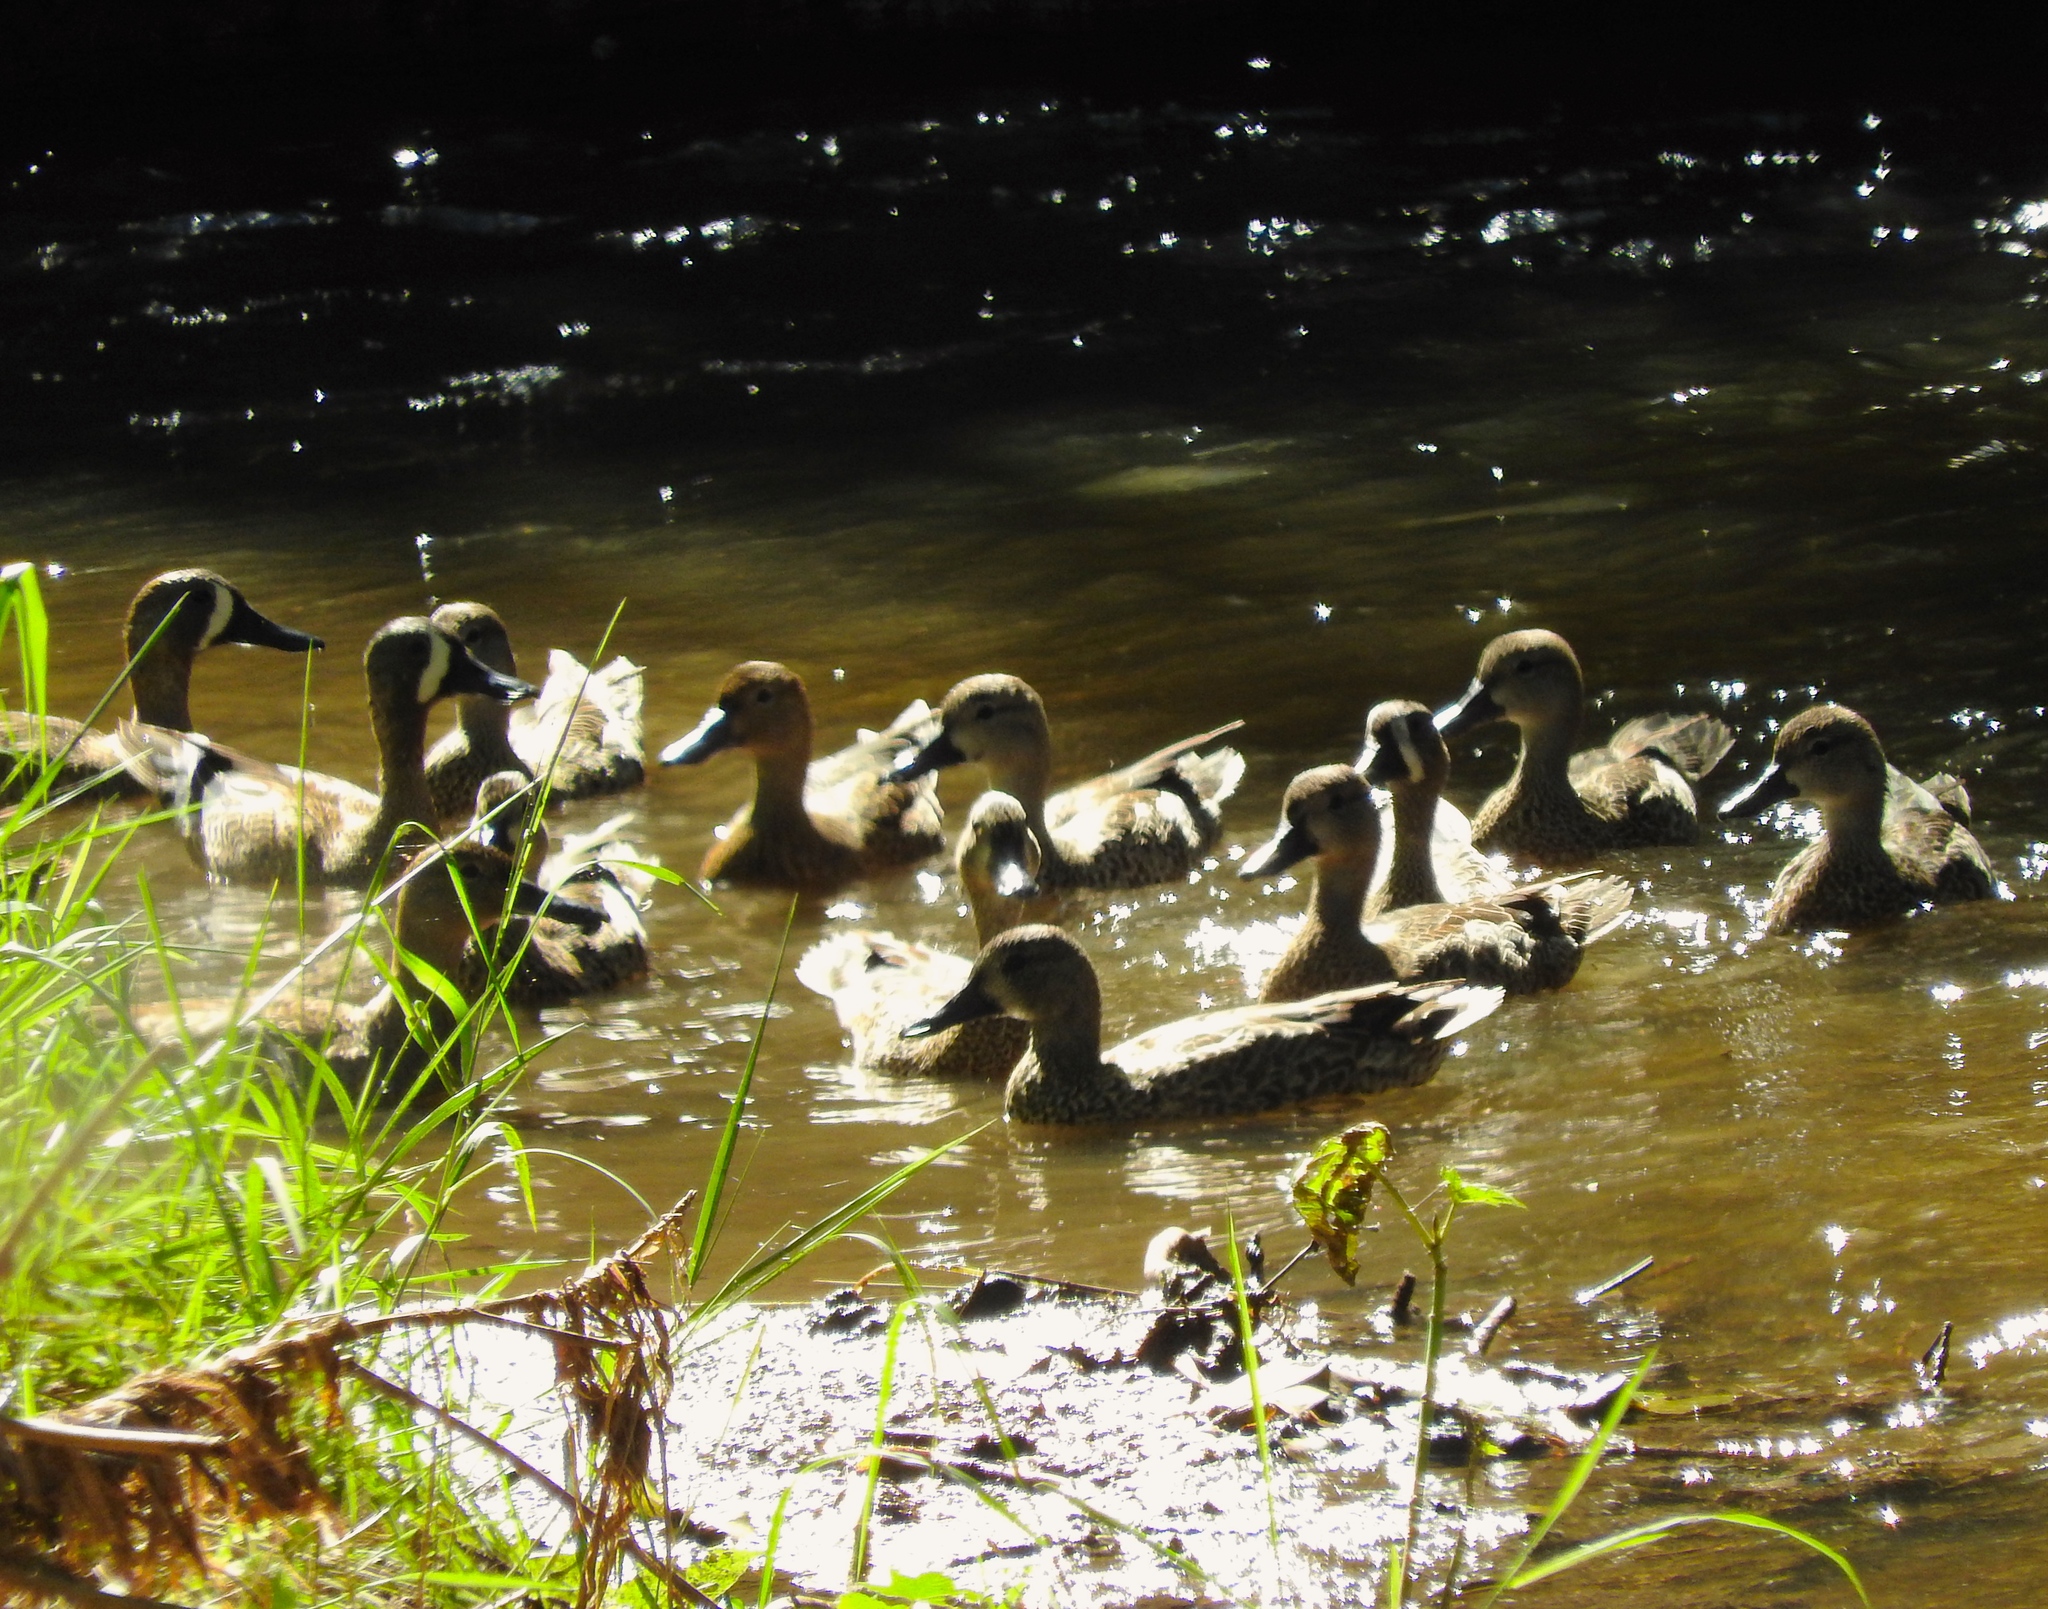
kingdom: Animalia
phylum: Chordata
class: Aves
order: Anseriformes
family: Anatidae
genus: Spatula
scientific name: Spatula discors
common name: Blue-winged teal
